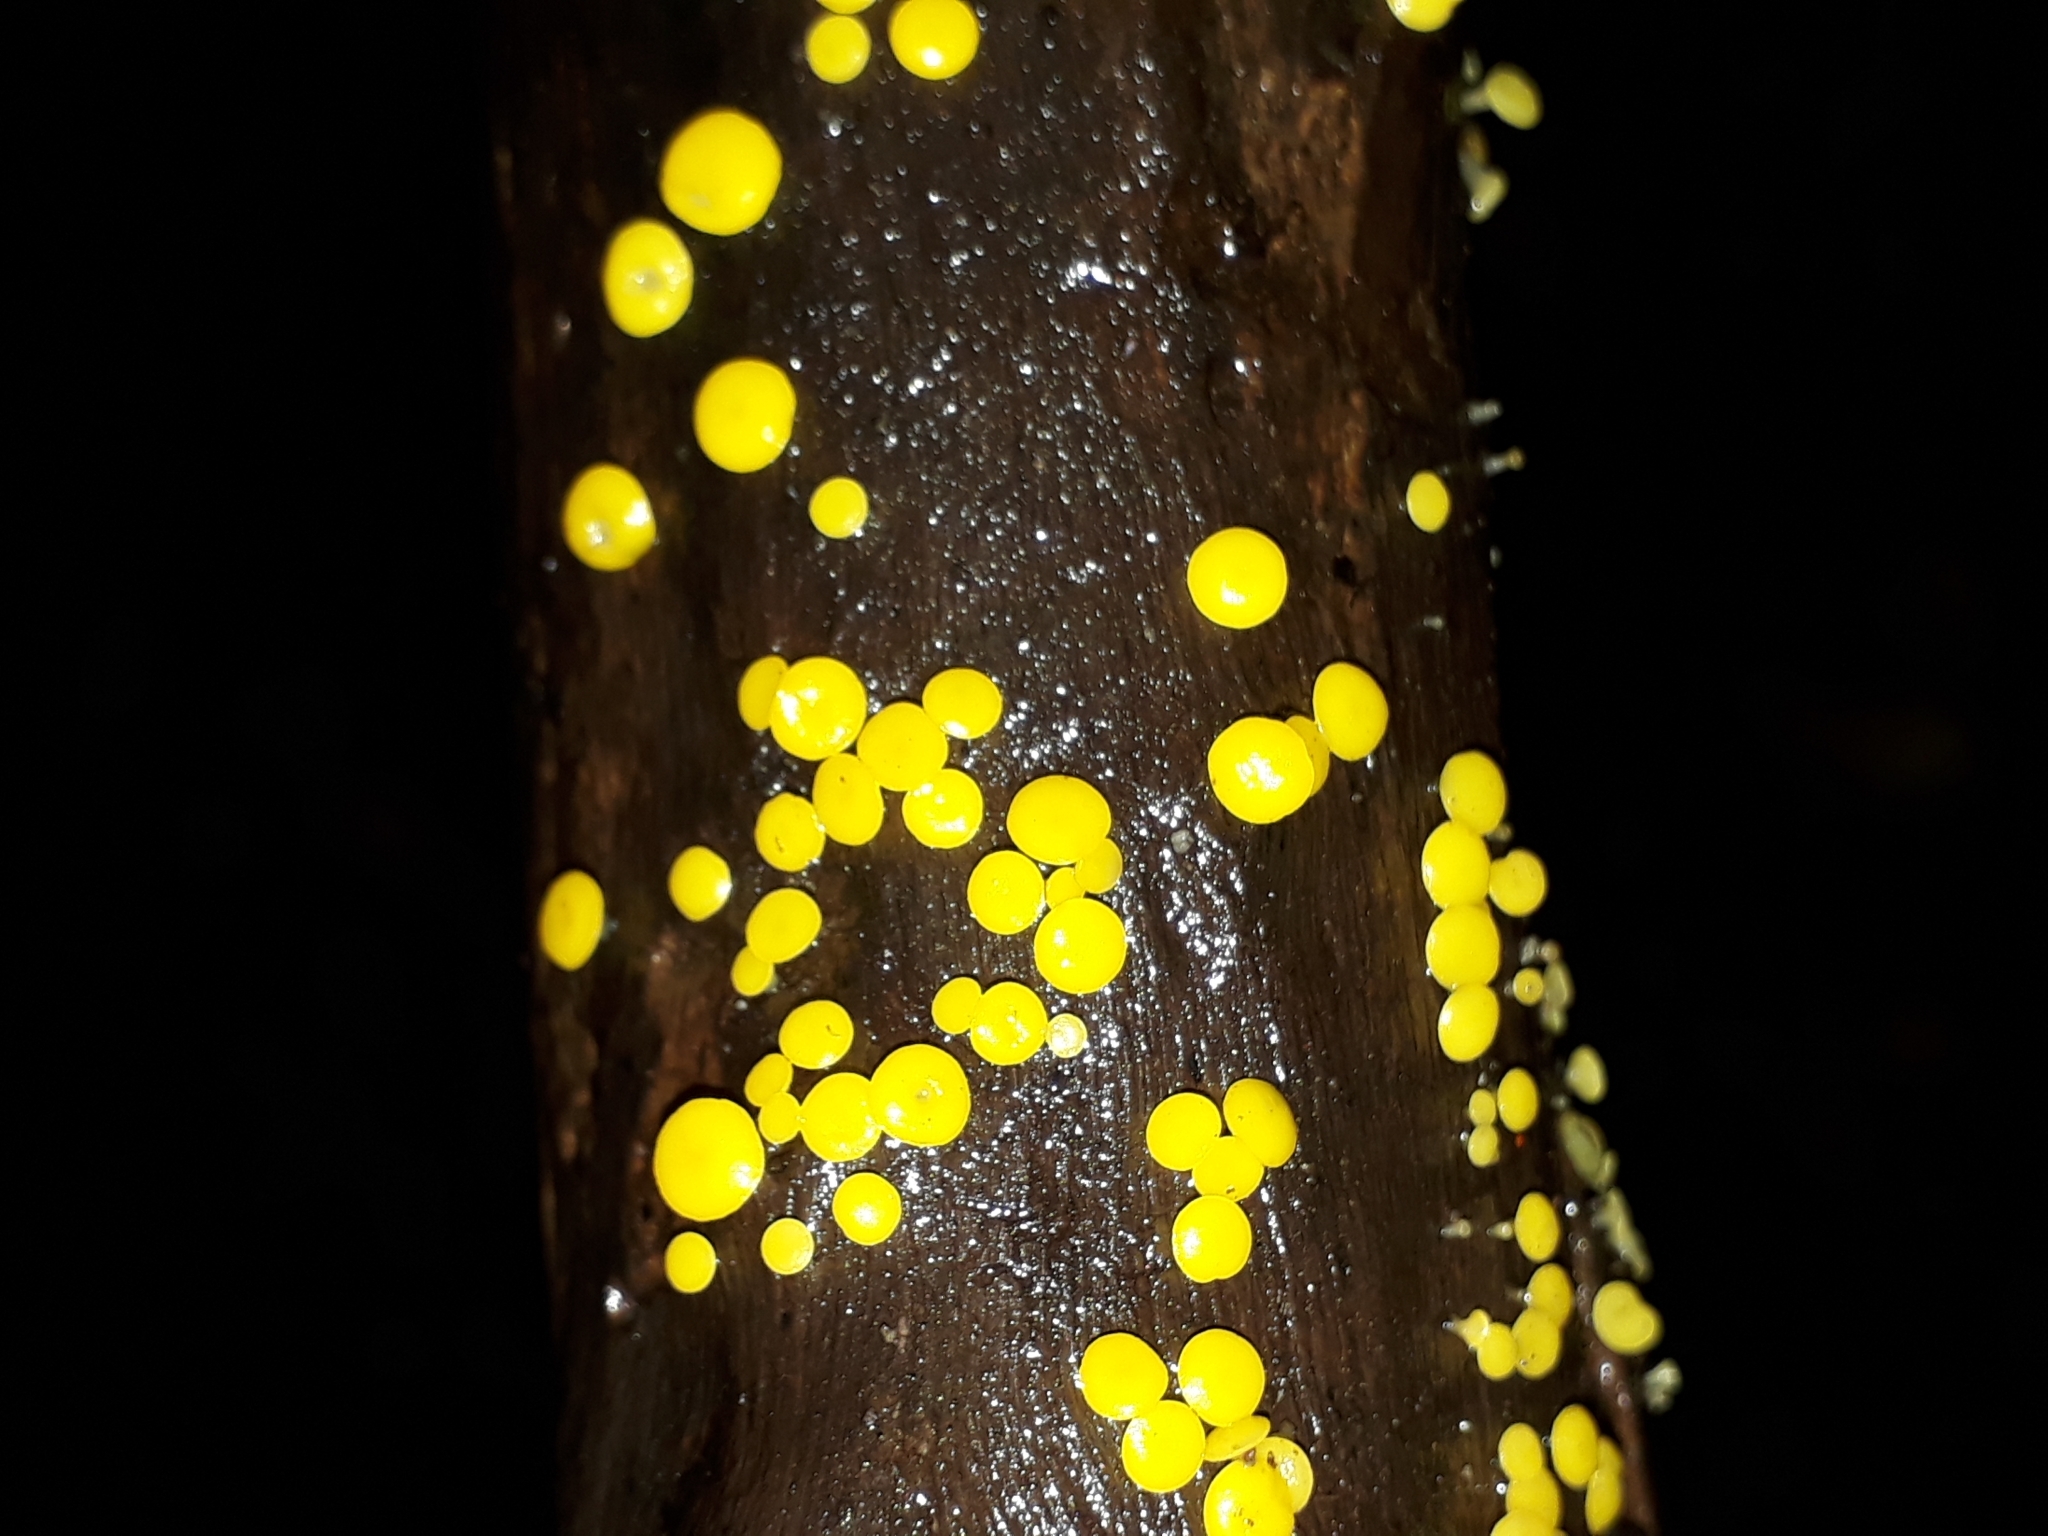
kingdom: Fungi
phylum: Ascomycota
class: Leotiomycetes
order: Helotiales
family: Pezizellaceae
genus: Calycina
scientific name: Calycina citrina
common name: Yellow fairy cups
